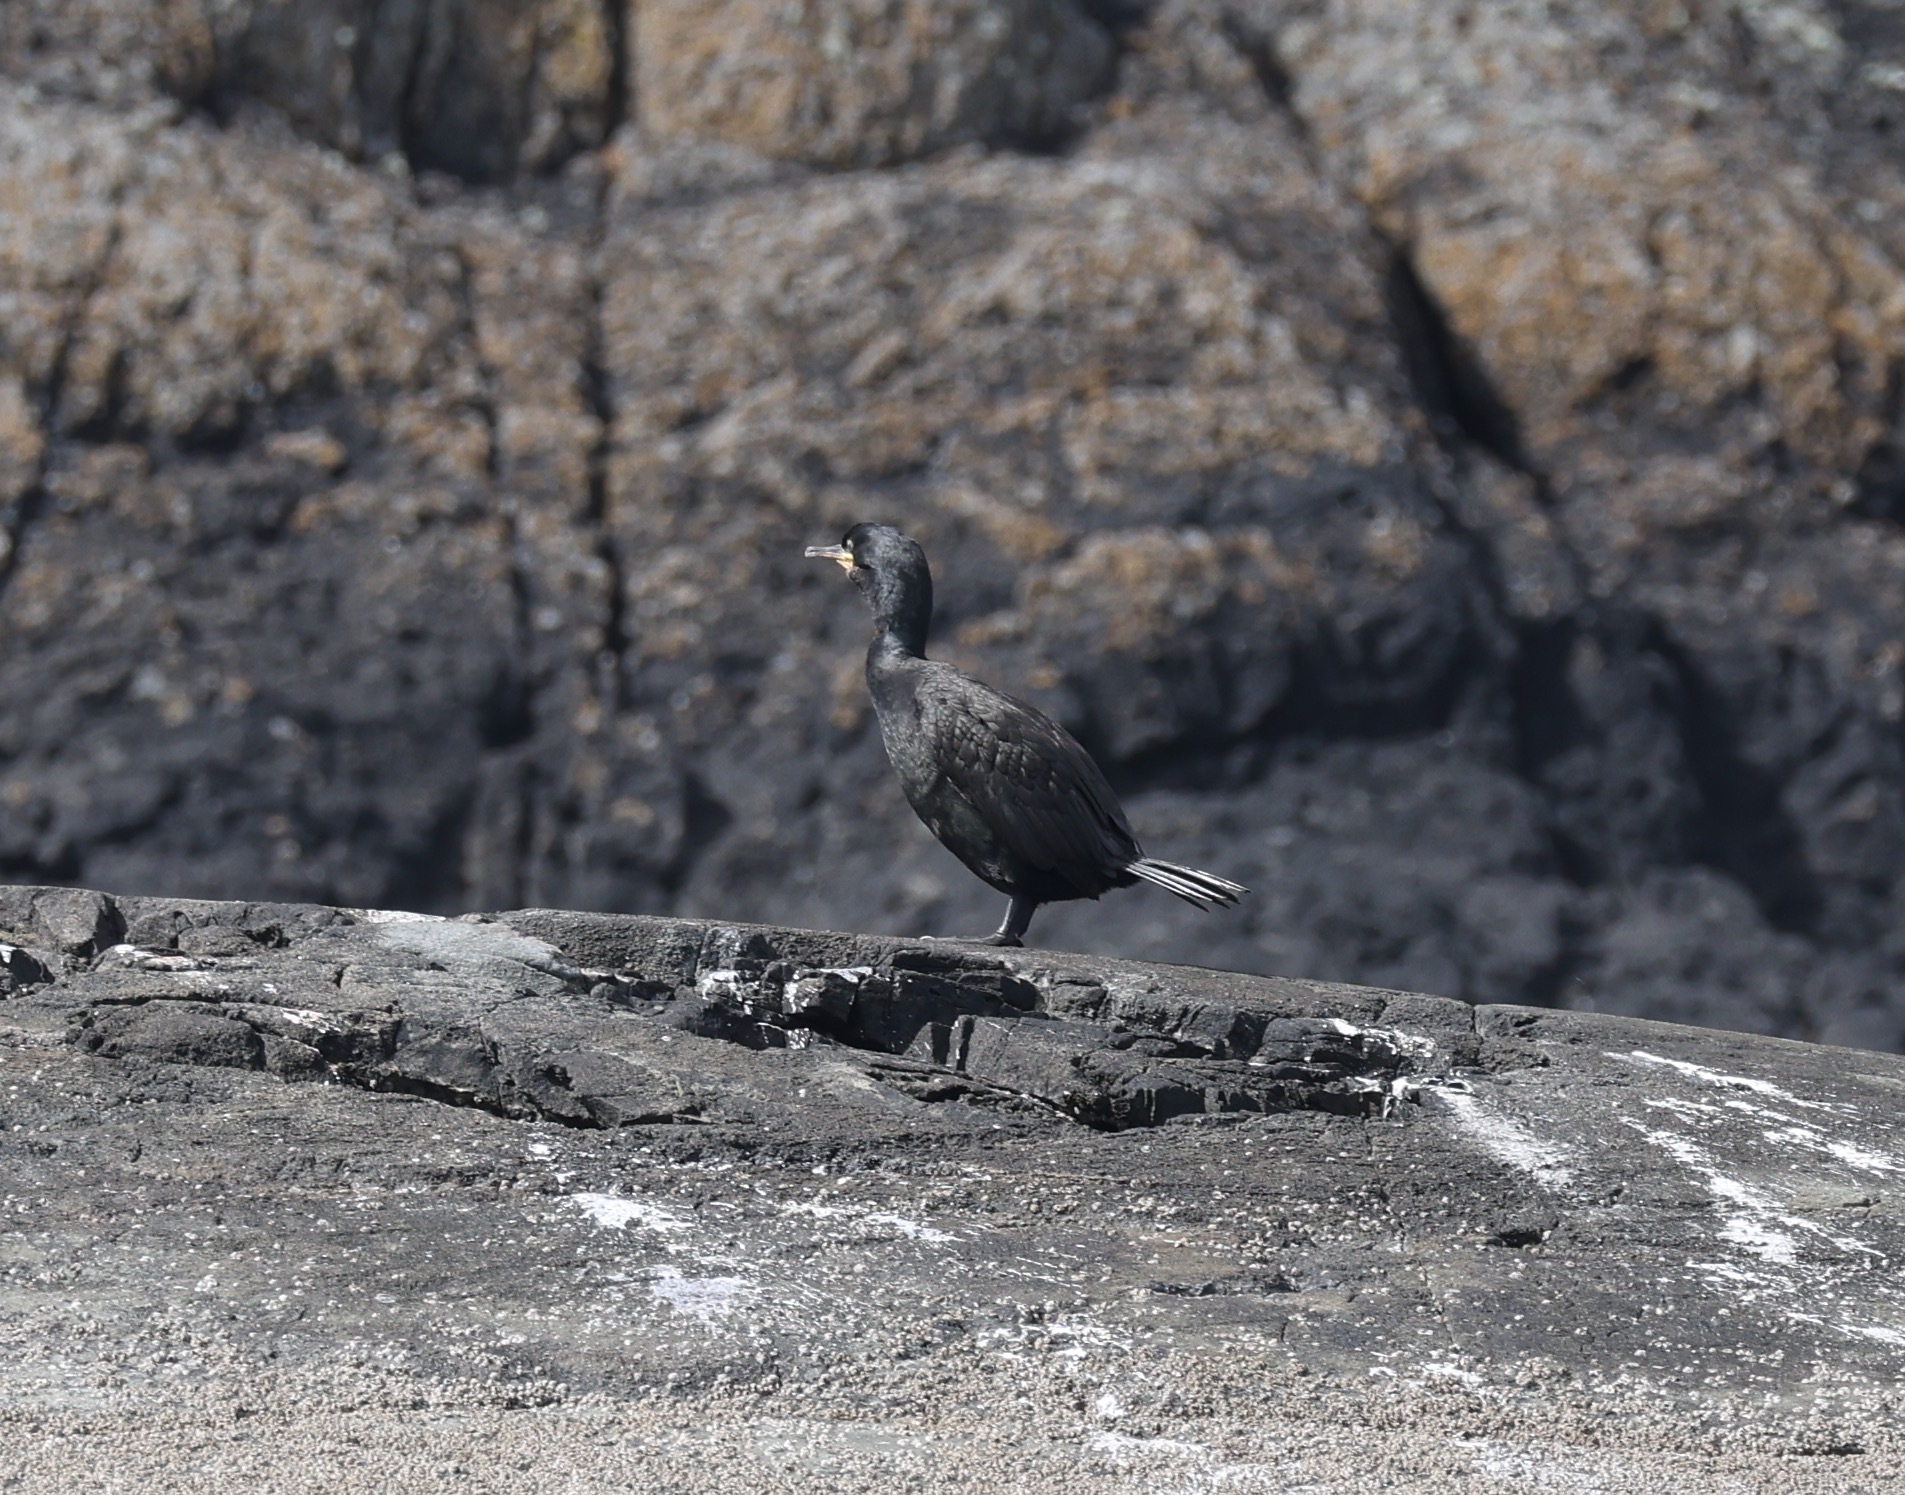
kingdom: Animalia
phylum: Chordata
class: Aves
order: Suliformes
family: Phalacrocoracidae
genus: Phalacrocorax
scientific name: Phalacrocorax aristotelis
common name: European shag
